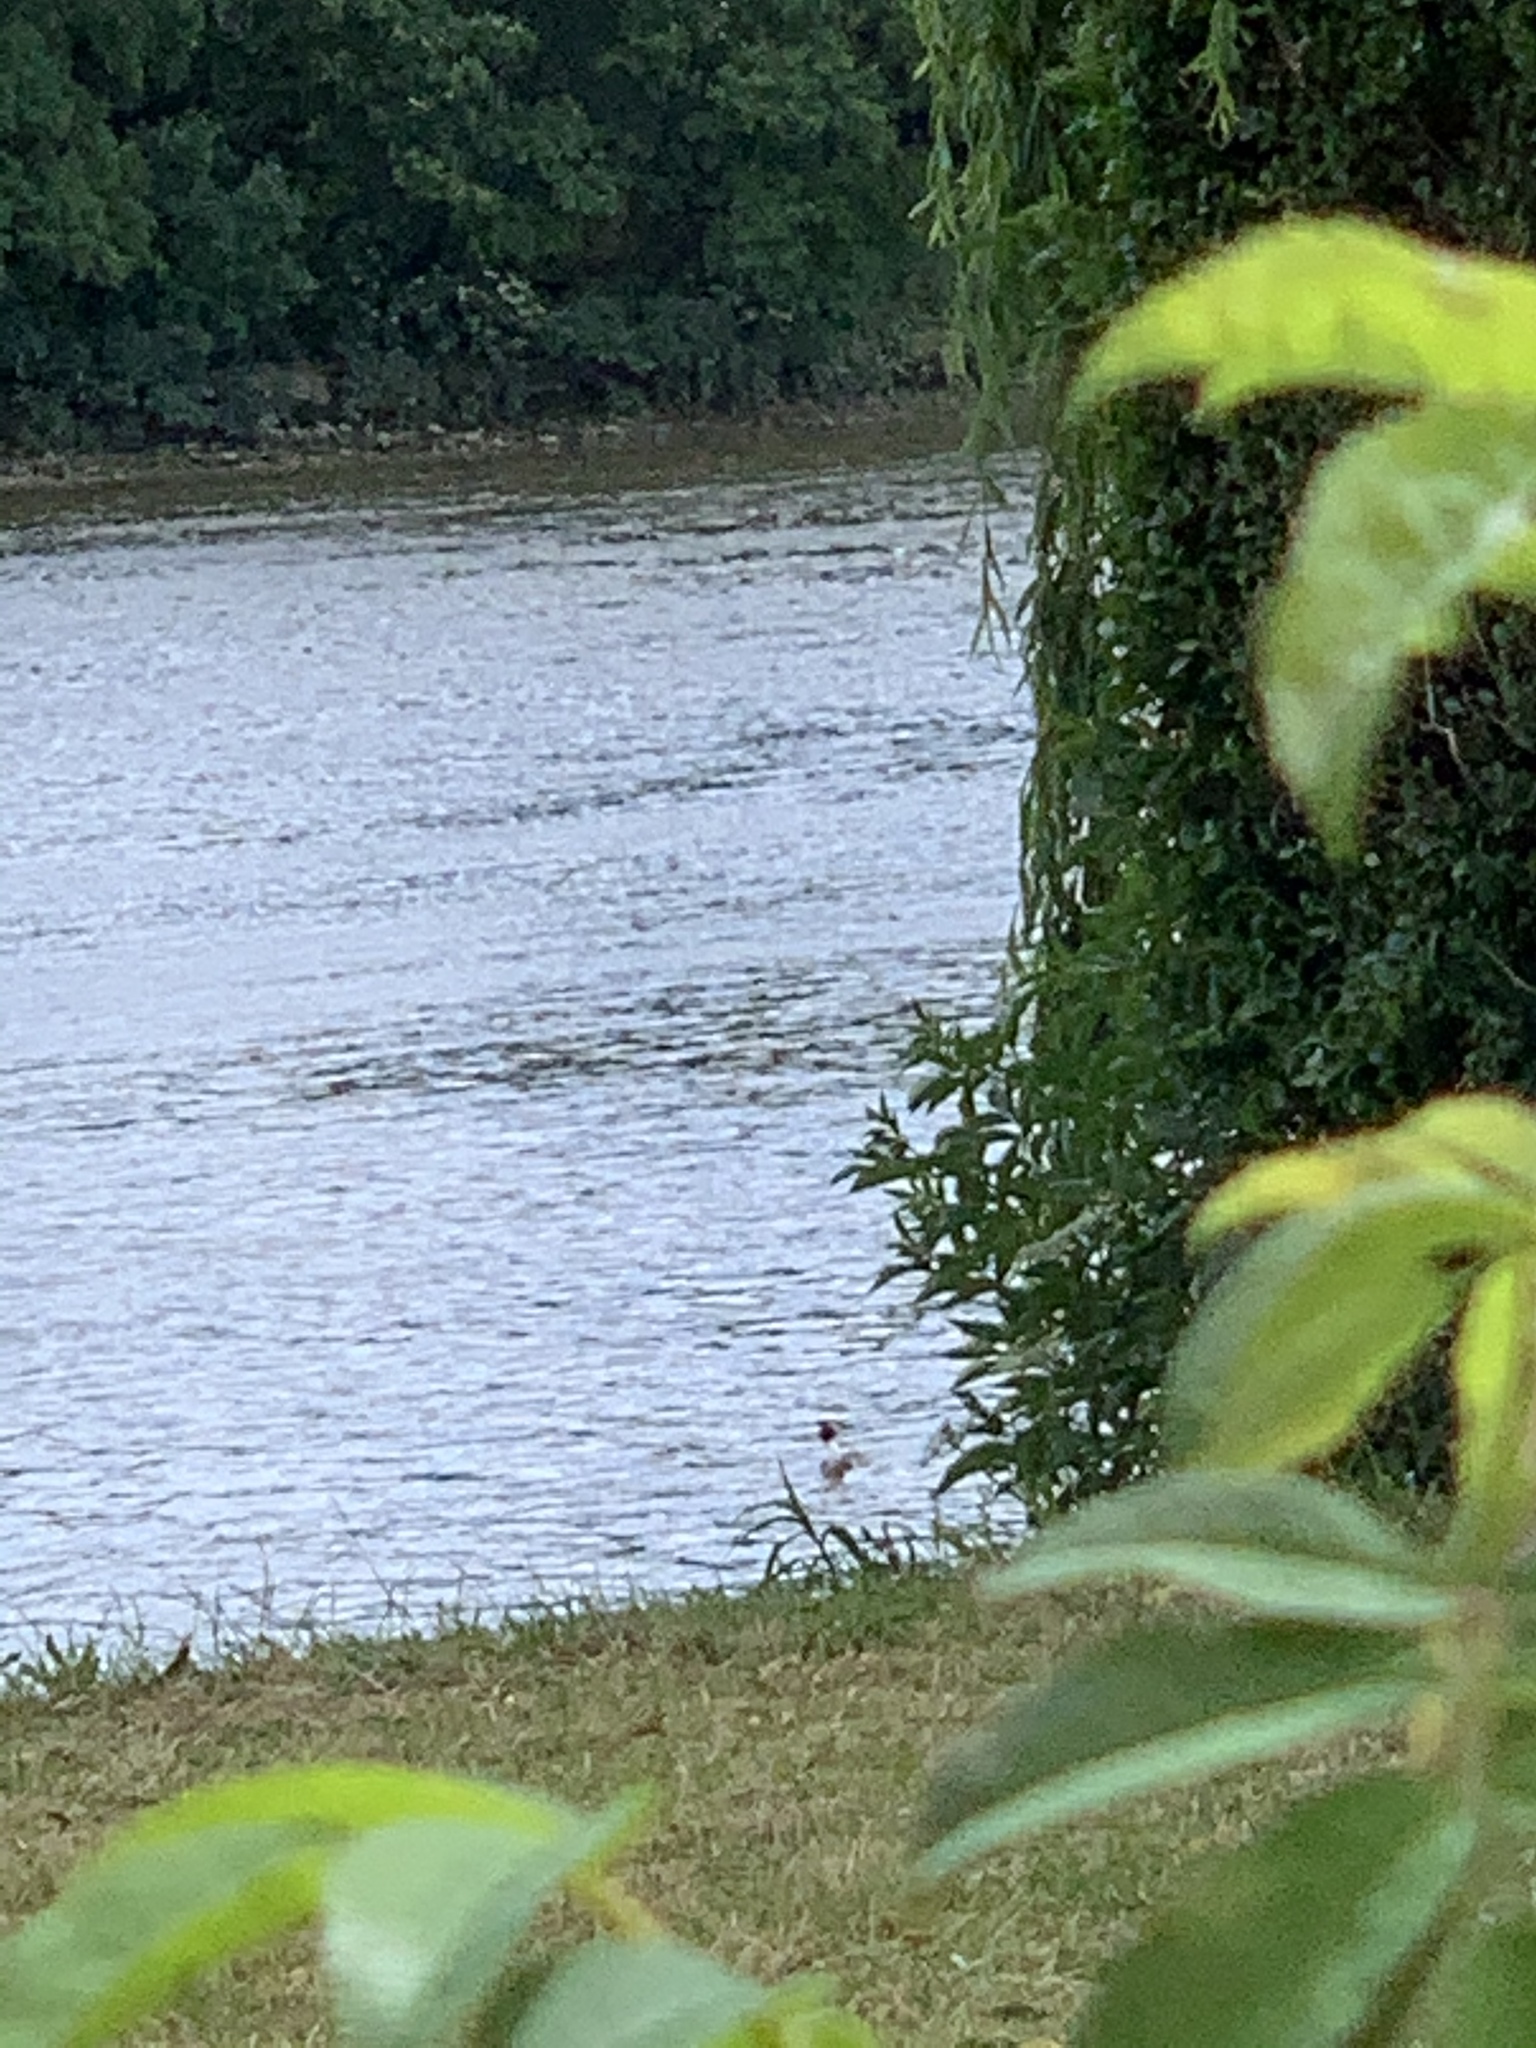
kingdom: Animalia
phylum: Chordata
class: Aves
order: Podicipediformes
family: Podicipedidae
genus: Podiceps
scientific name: Podiceps cristatus
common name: Great crested grebe
